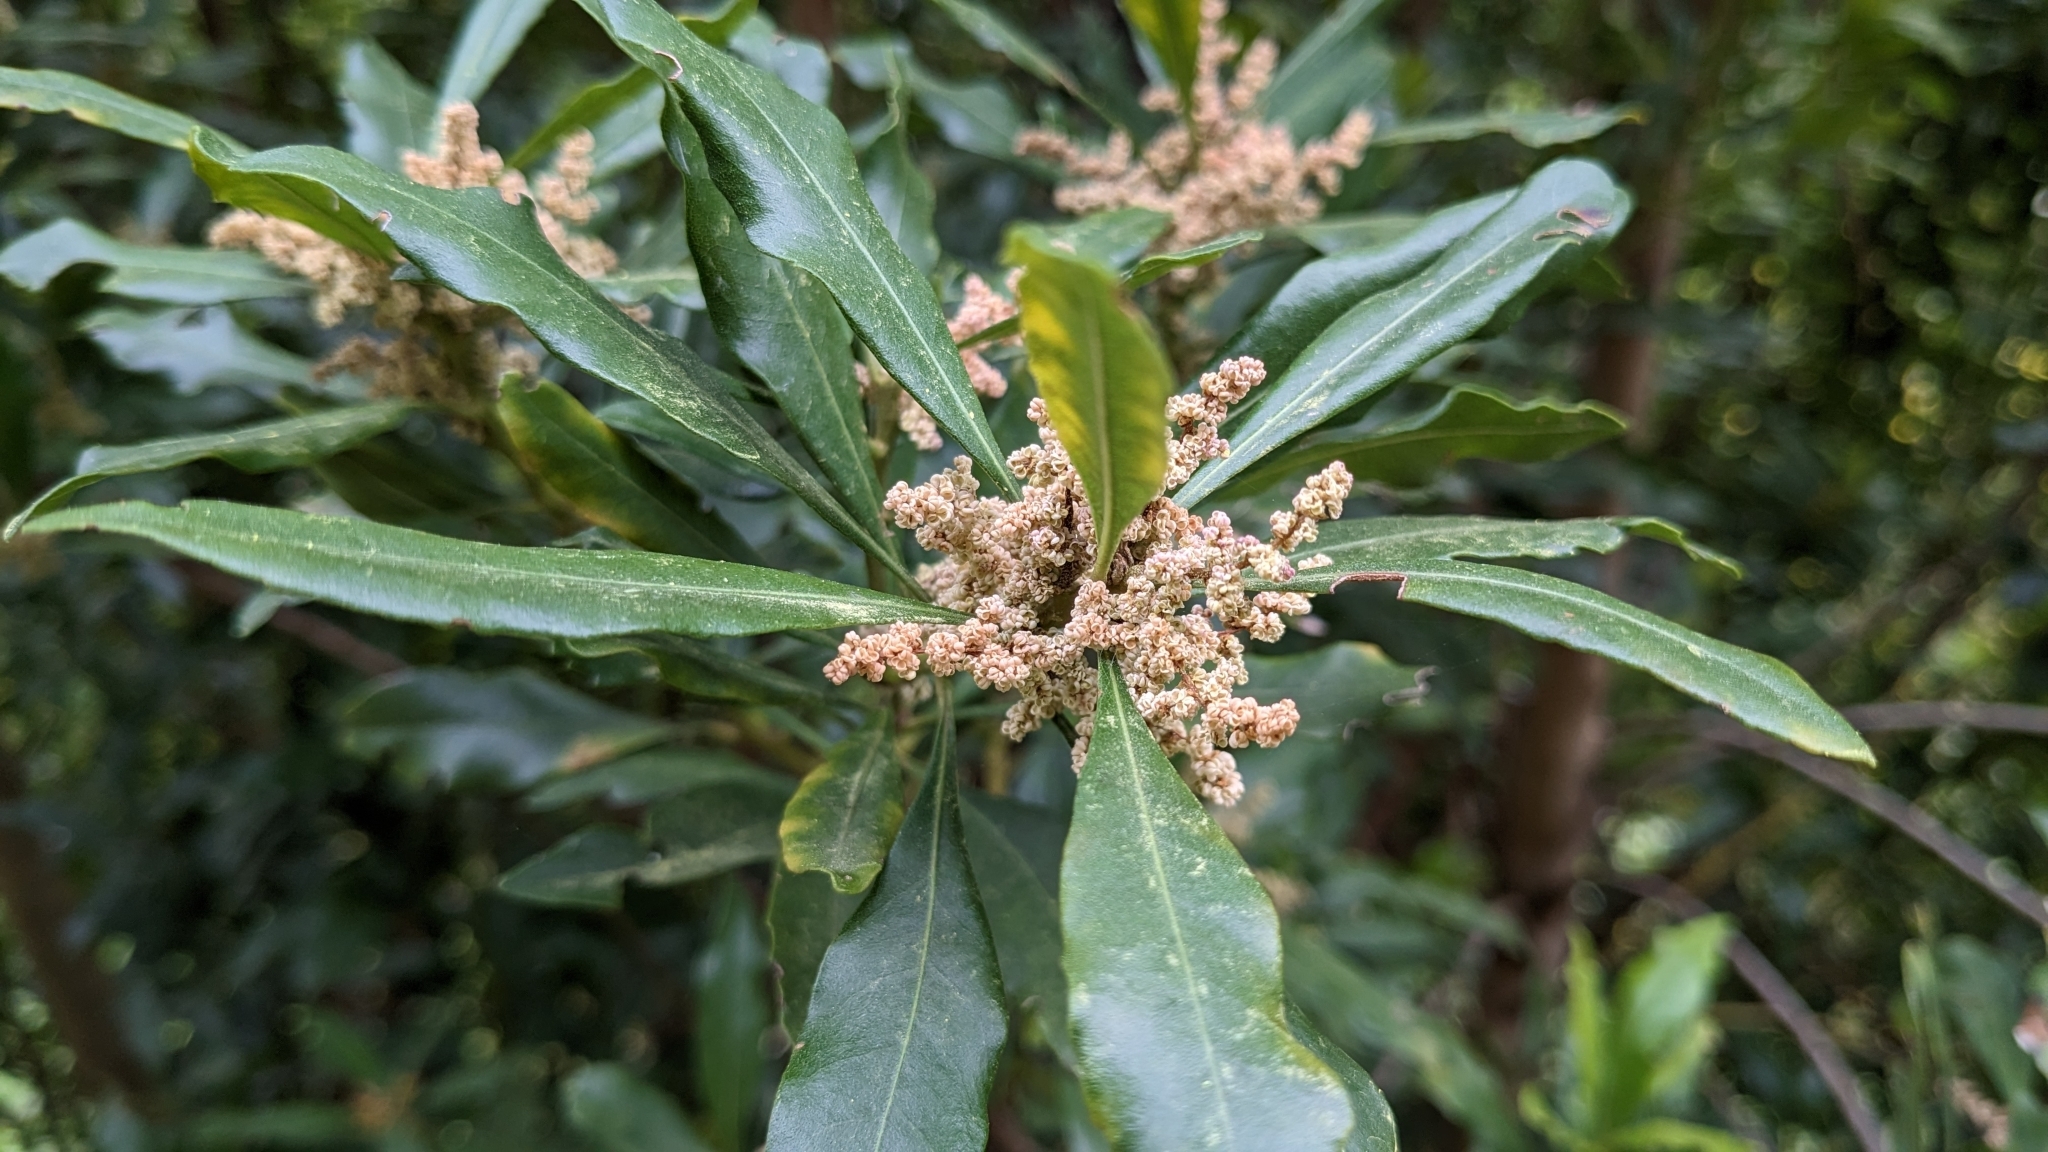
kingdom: Plantae
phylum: Tracheophyta
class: Magnoliopsida
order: Fagales
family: Myricaceae
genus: Morella
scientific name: Morella faya
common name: Firetree
